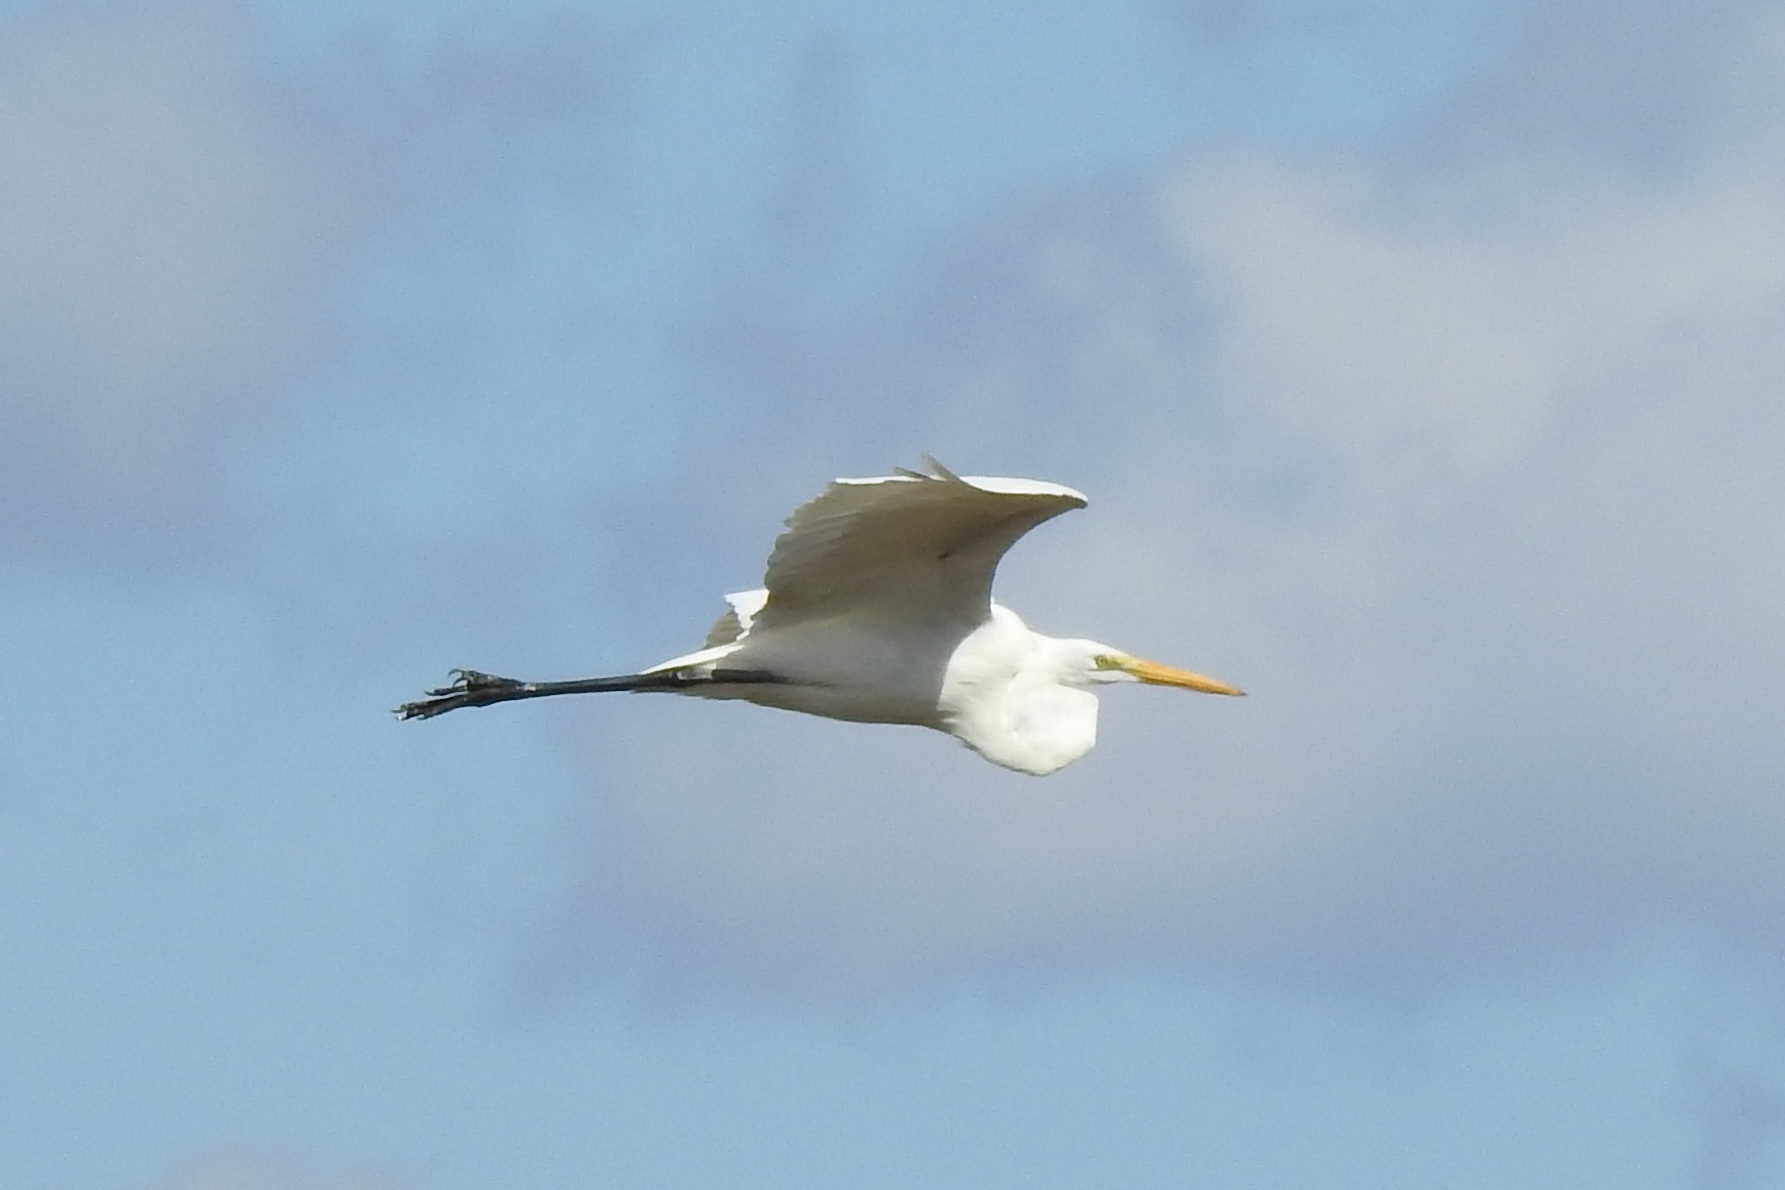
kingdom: Animalia
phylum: Chordata
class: Aves
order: Pelecaniformes
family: Ardeidae
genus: Ardea
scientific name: Ardea alba
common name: Great egret
